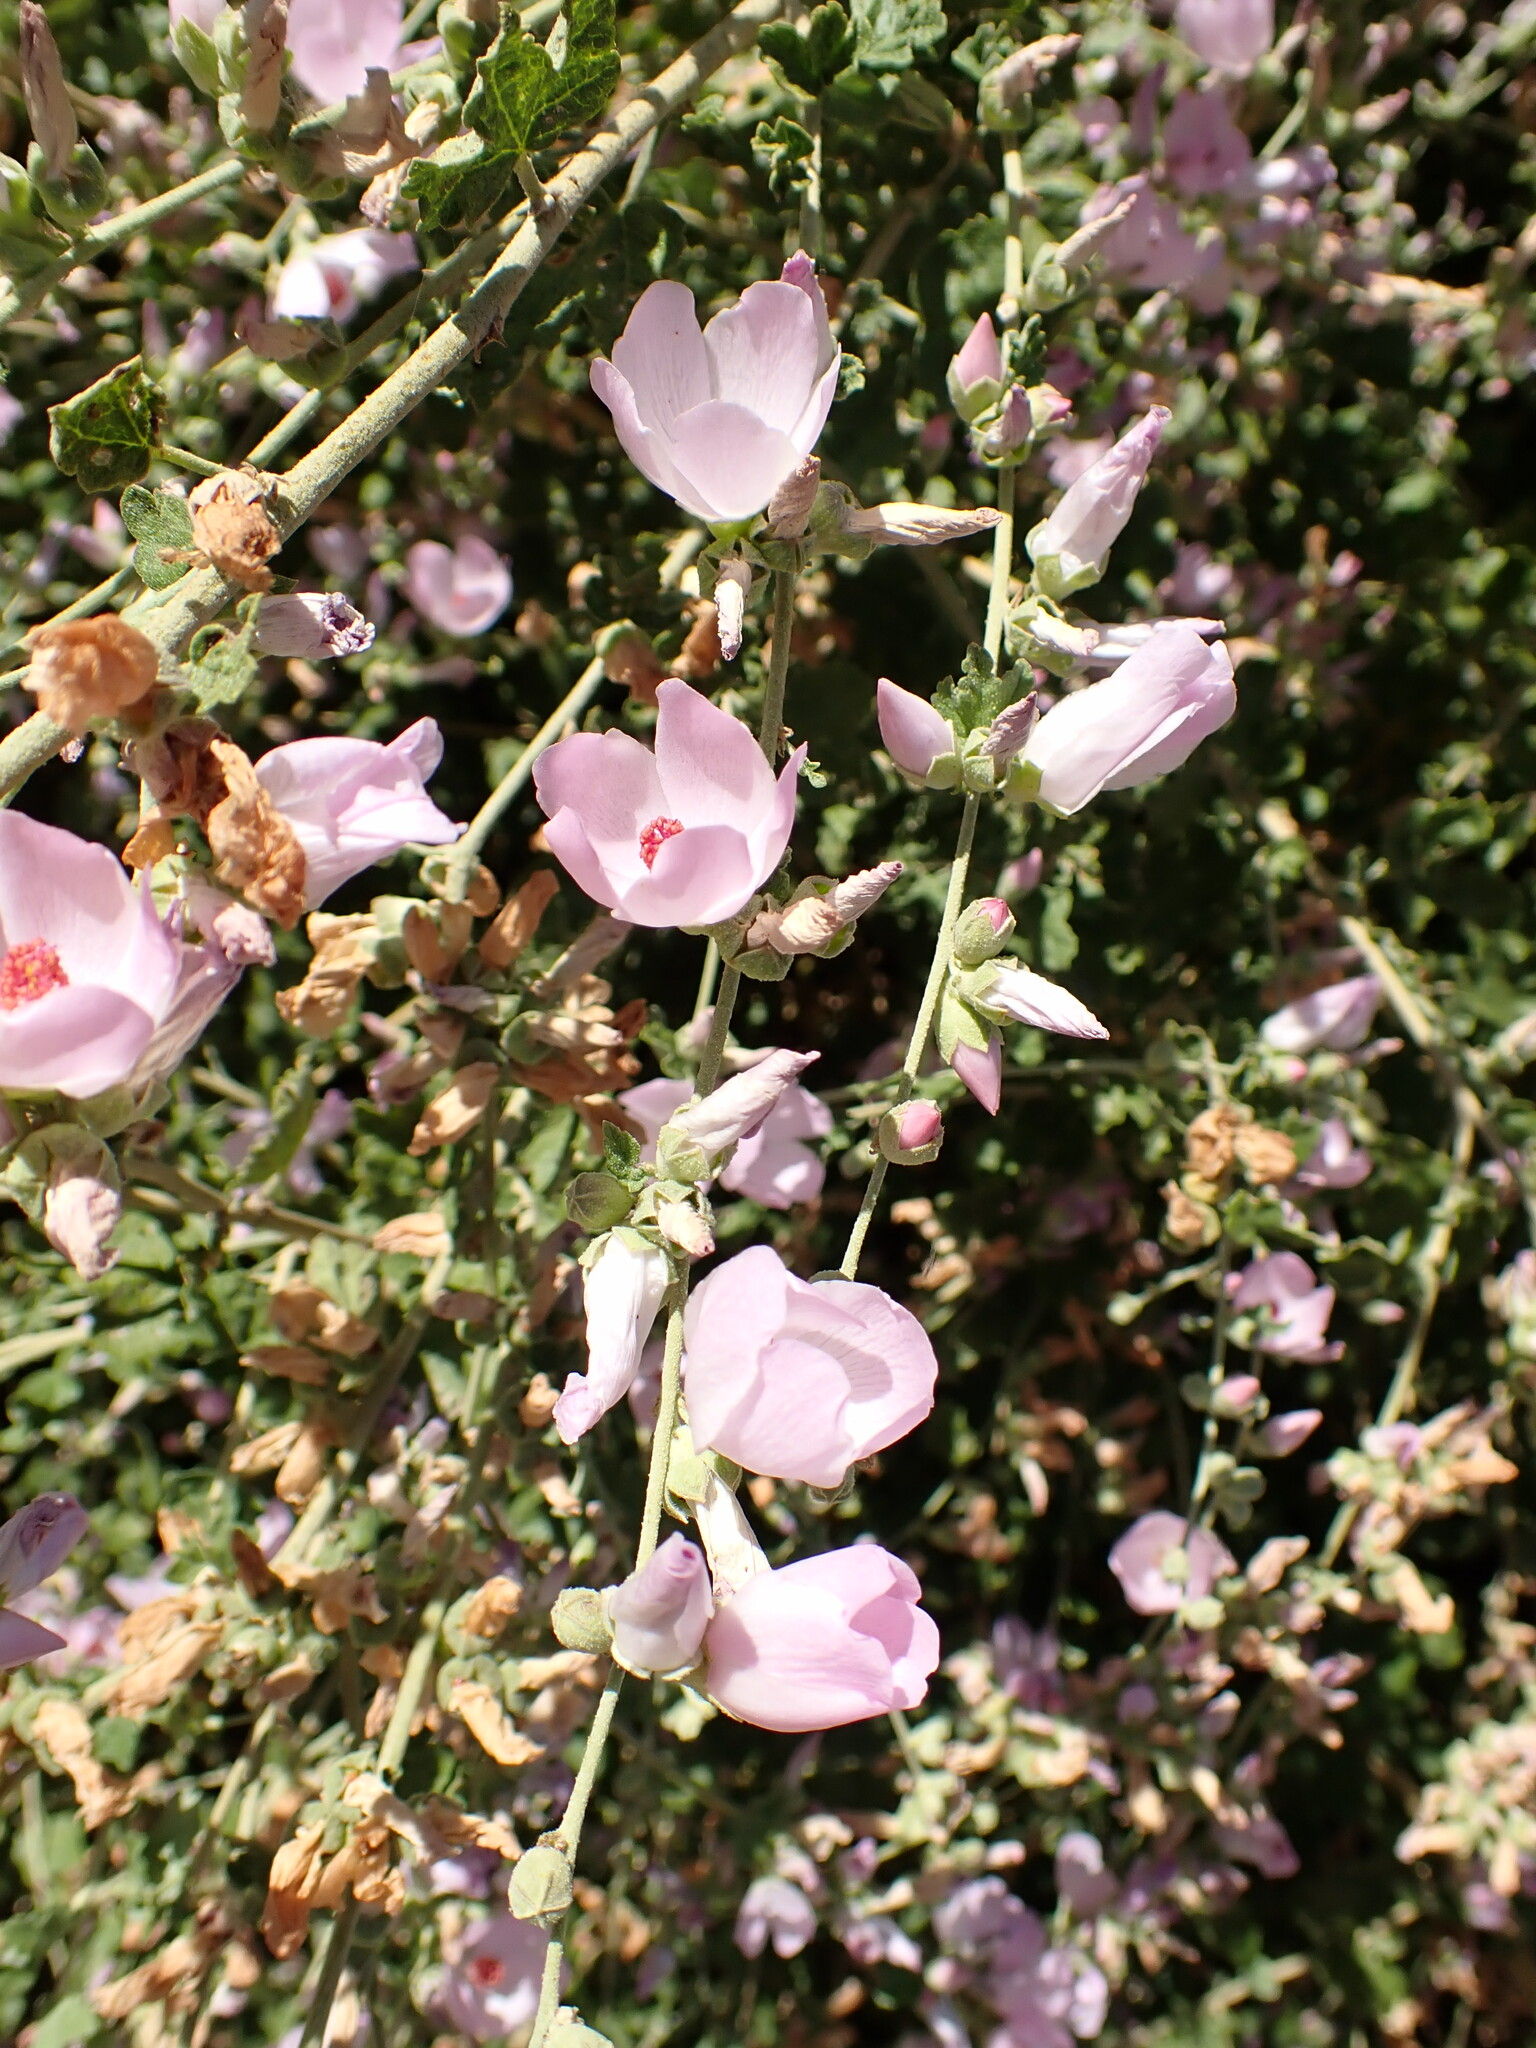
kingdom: Plantae
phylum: Tracheophyta
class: Magnoliopsida
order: Malvales
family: Malvaceae
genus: Malacothamnus
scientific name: Malacothamnus fasciculatus
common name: Sant cruz island bush-mallow
